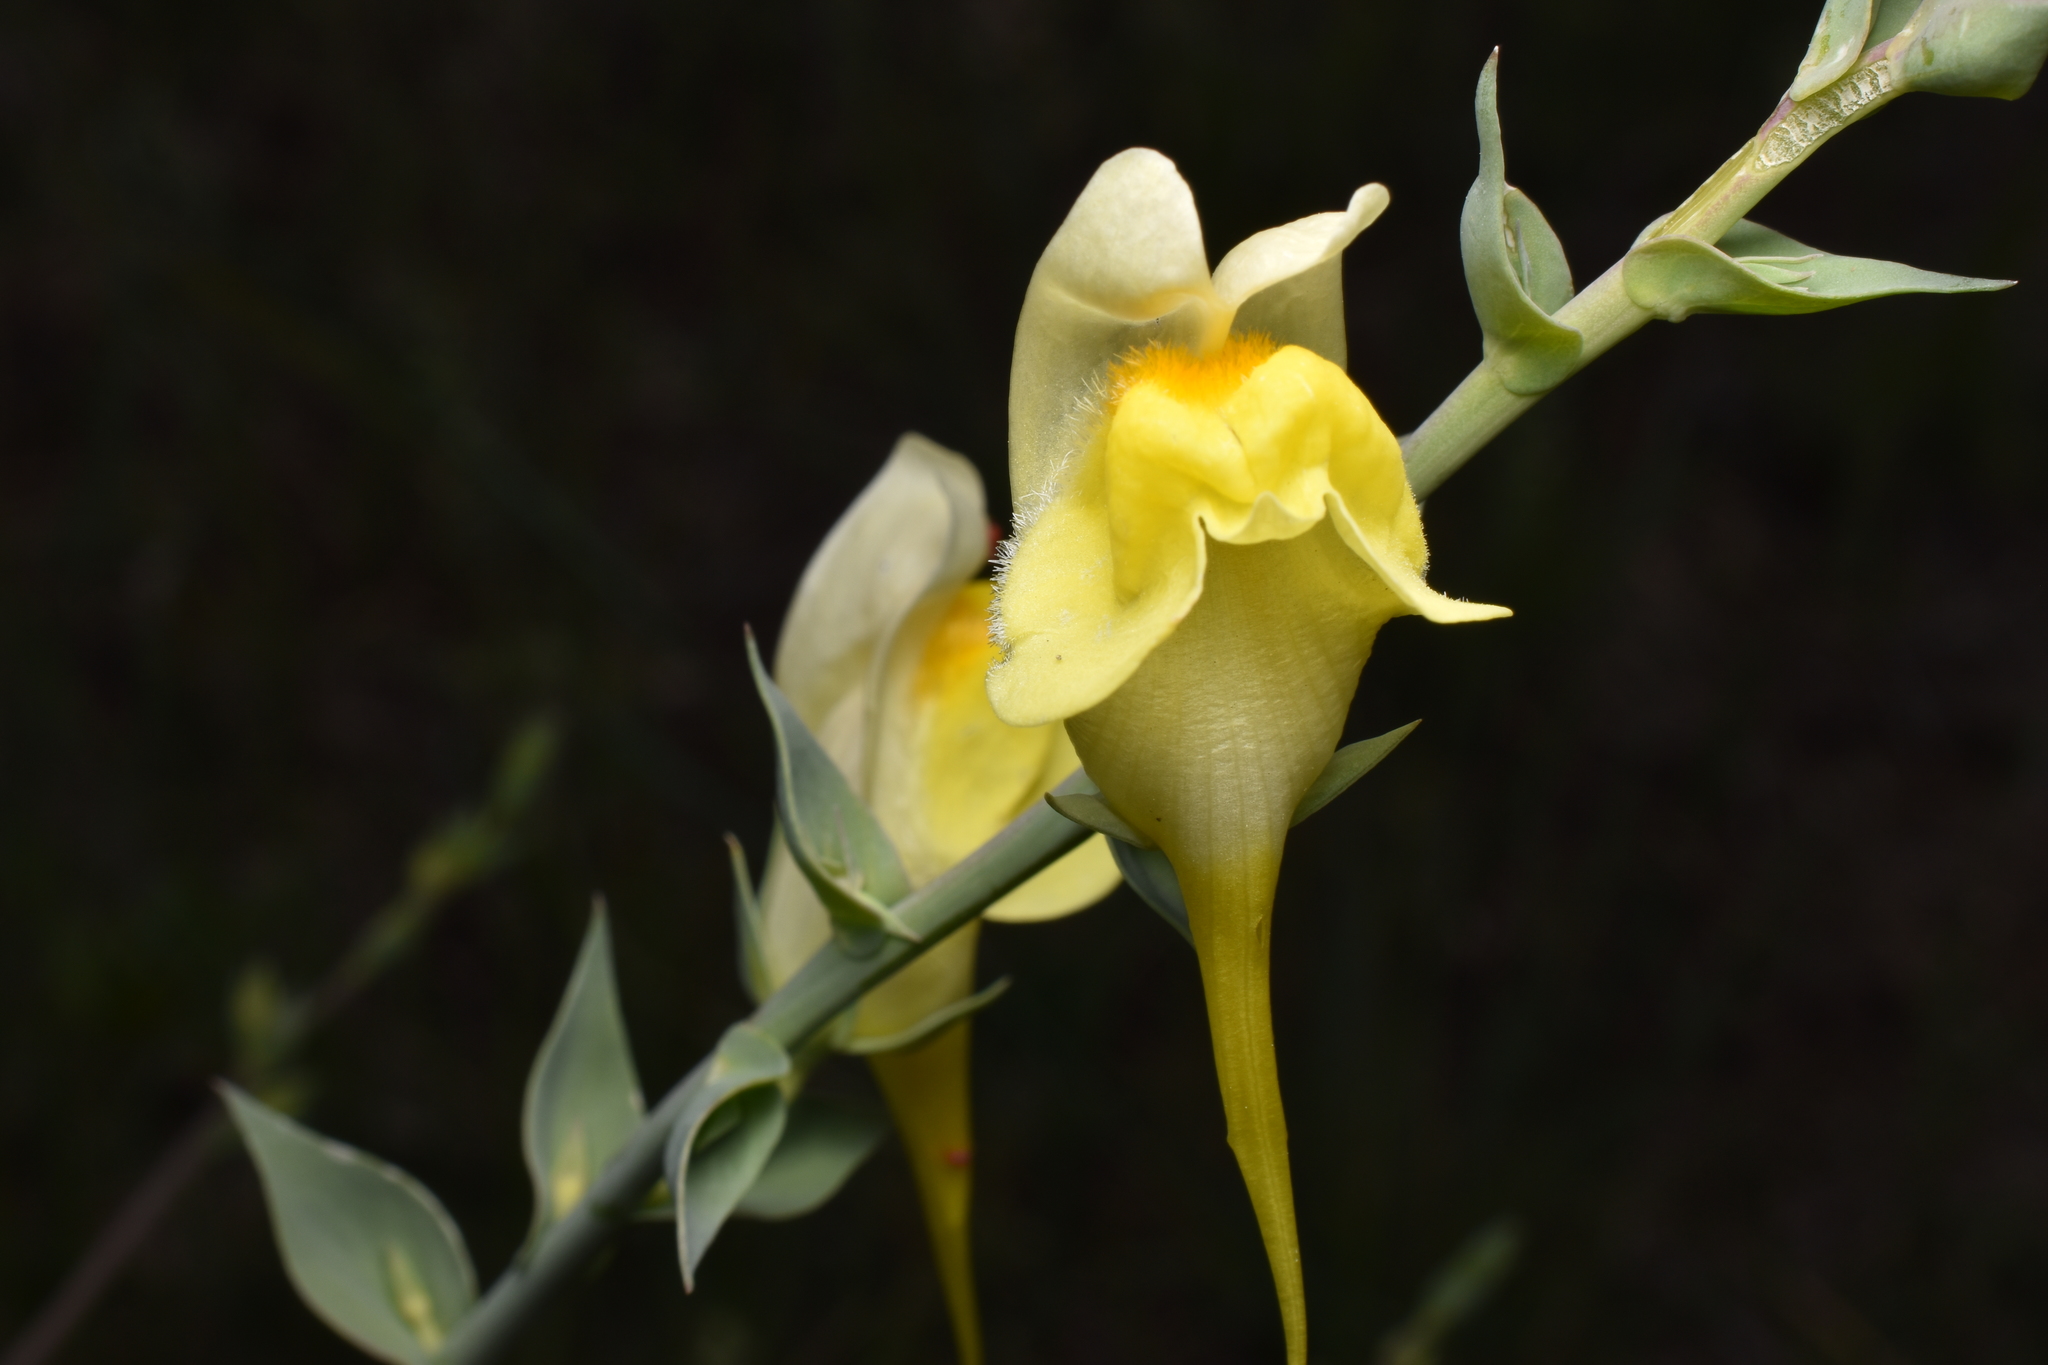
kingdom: Plantae
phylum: Tracheophyta
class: Magnoliopsida
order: Lamiales
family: Plantaginaceae
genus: Linaria
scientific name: Linaria dalmatica
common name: Dalmatian toadflax
